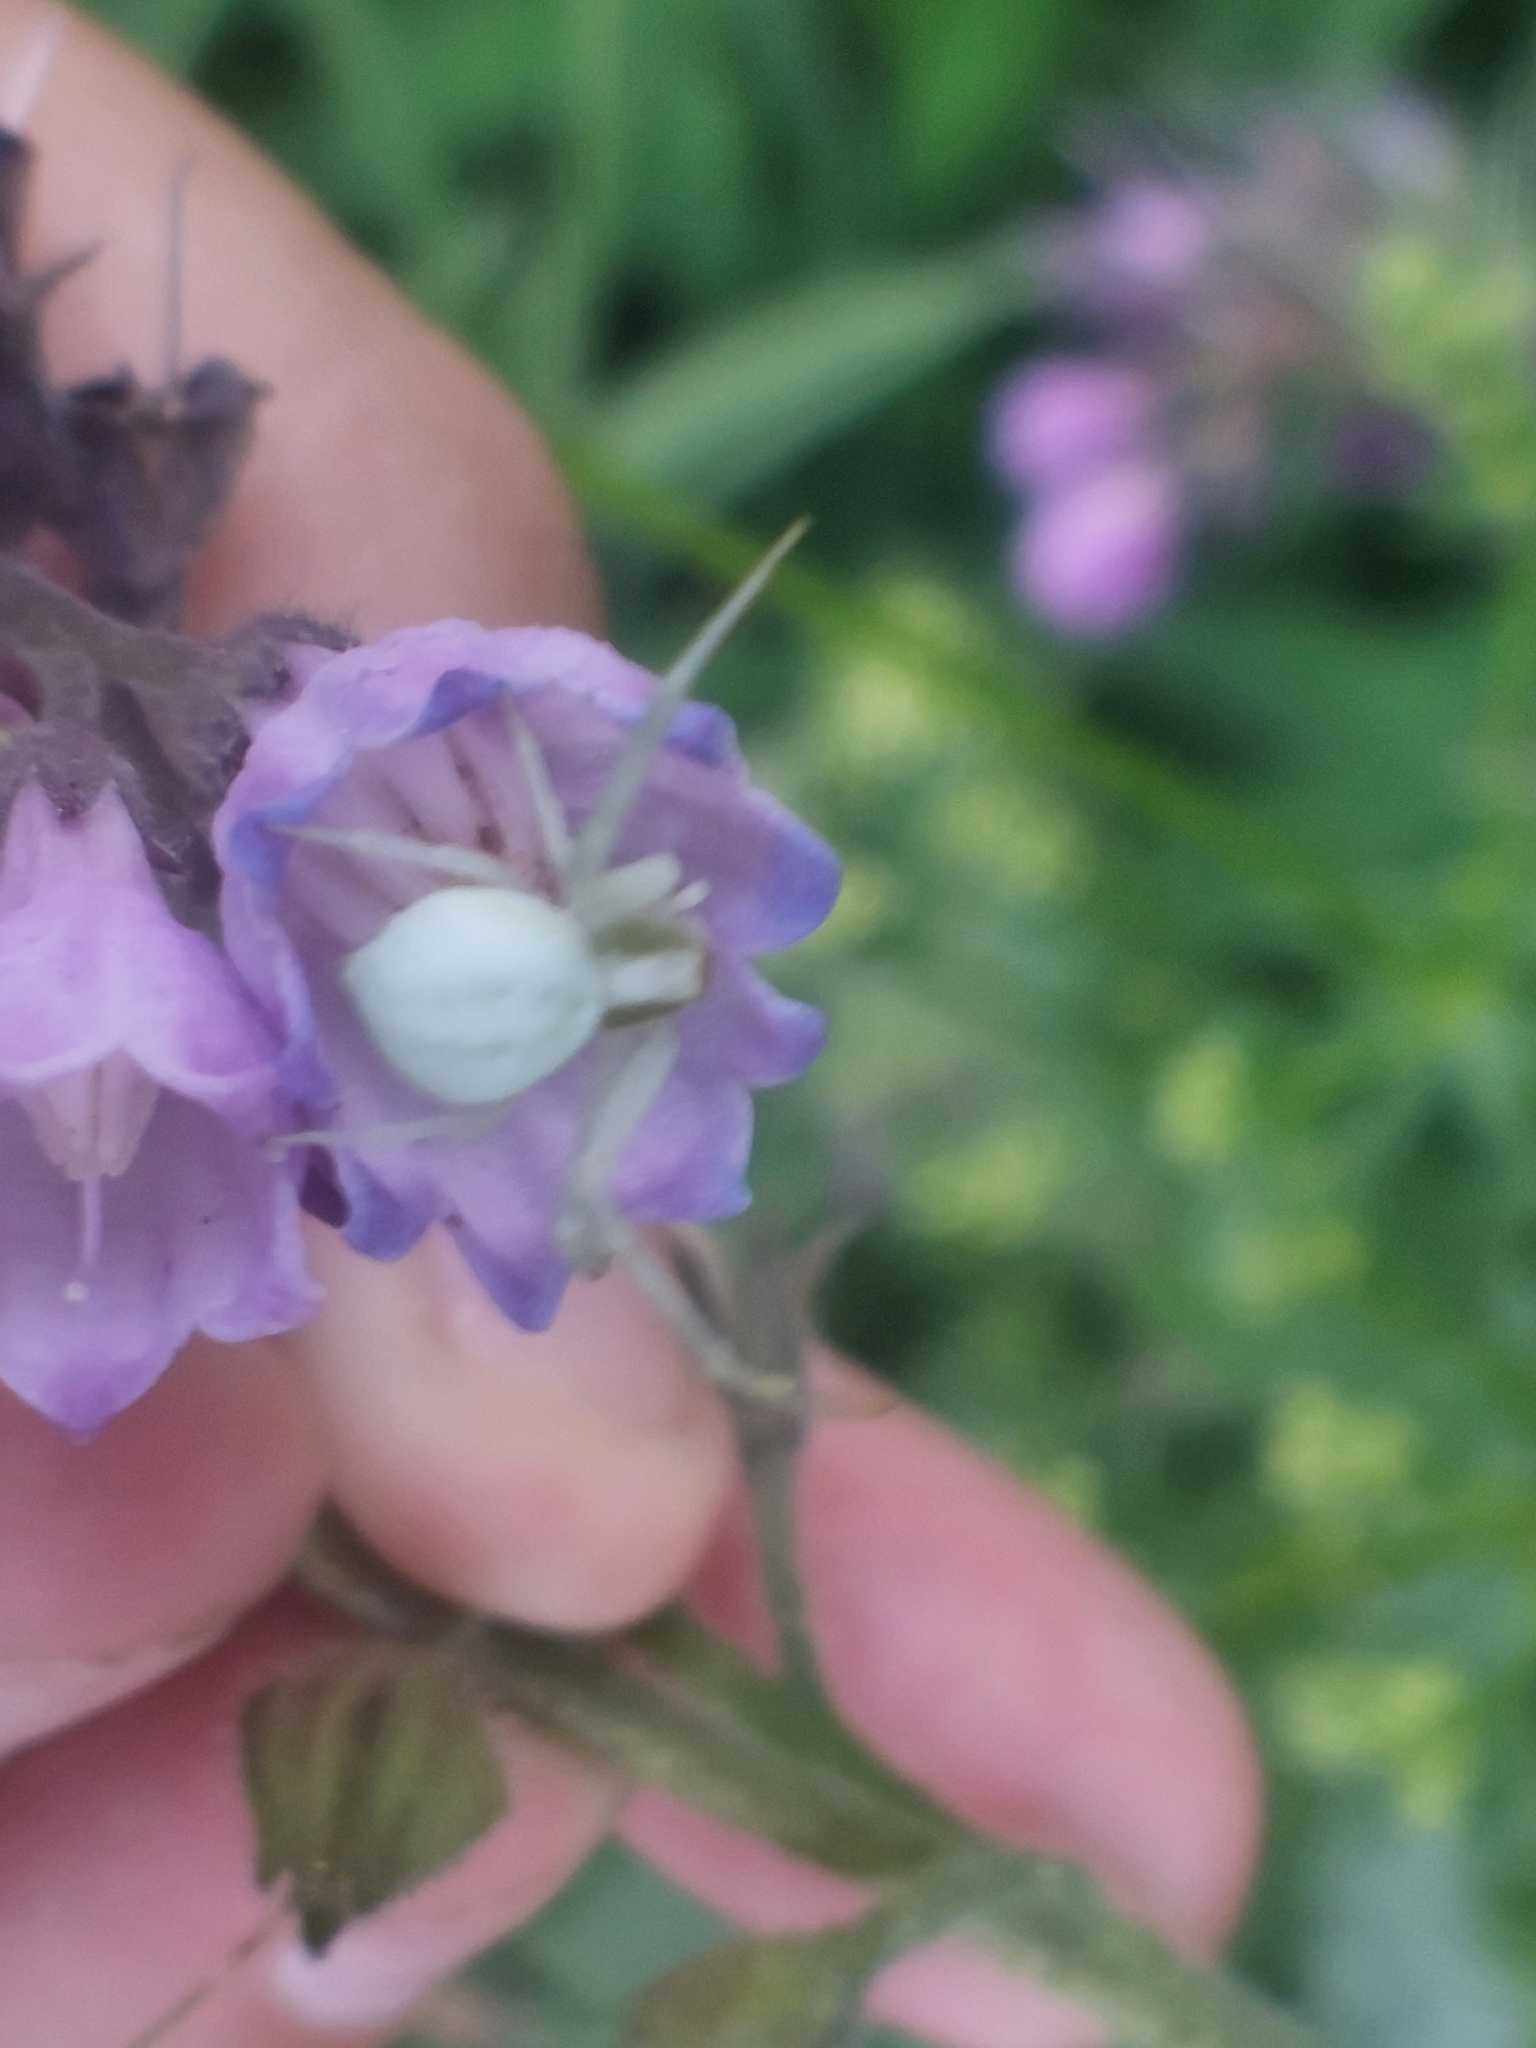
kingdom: Animalia
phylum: Arthropoda
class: Arachnida
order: Araneae
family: Thomisidae
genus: Misumena
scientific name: Misumena vatia
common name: Goldenrod crab spider
